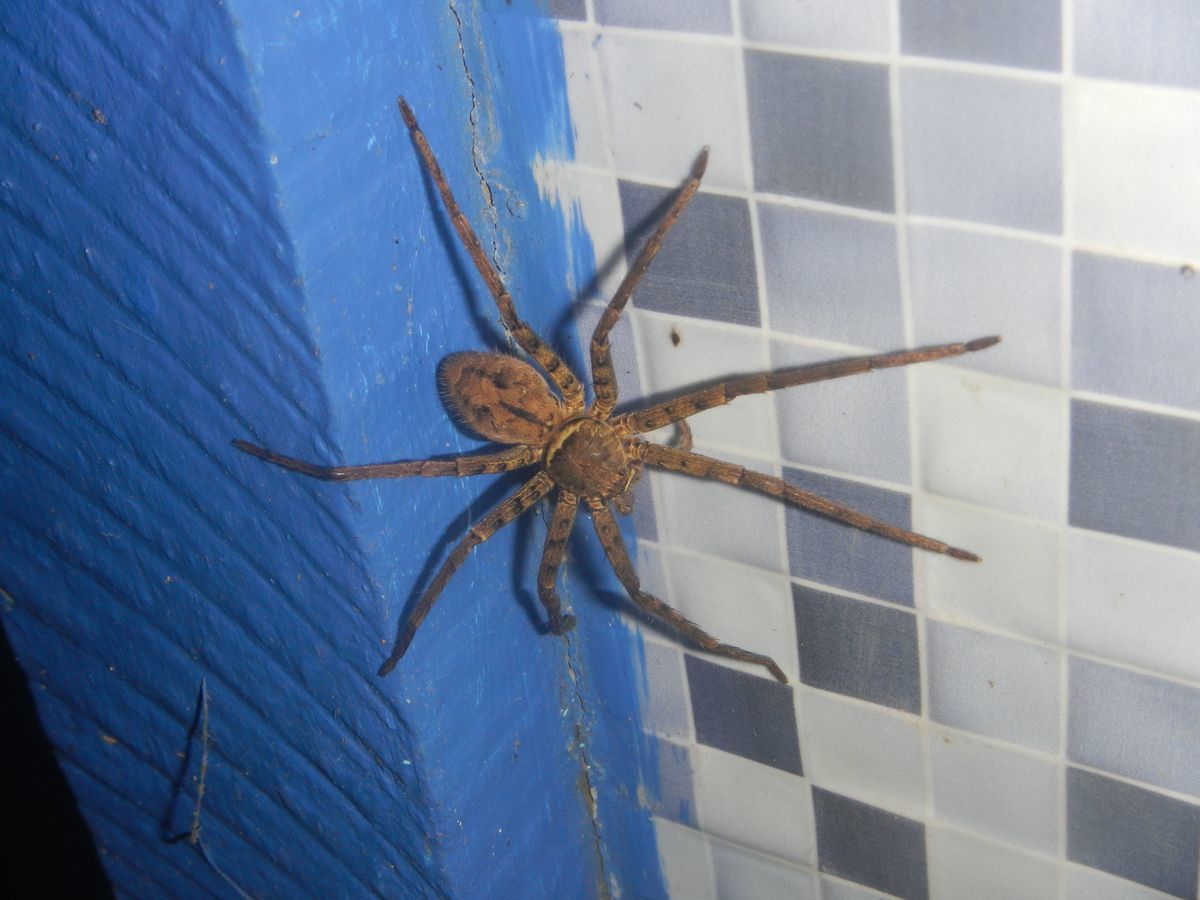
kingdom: Animalia
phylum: Arthropoda
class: Arachnida
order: Araneae
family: Sparassidae
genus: Heteropoda
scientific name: Heteropoda venatoria
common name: Huntsman spider
